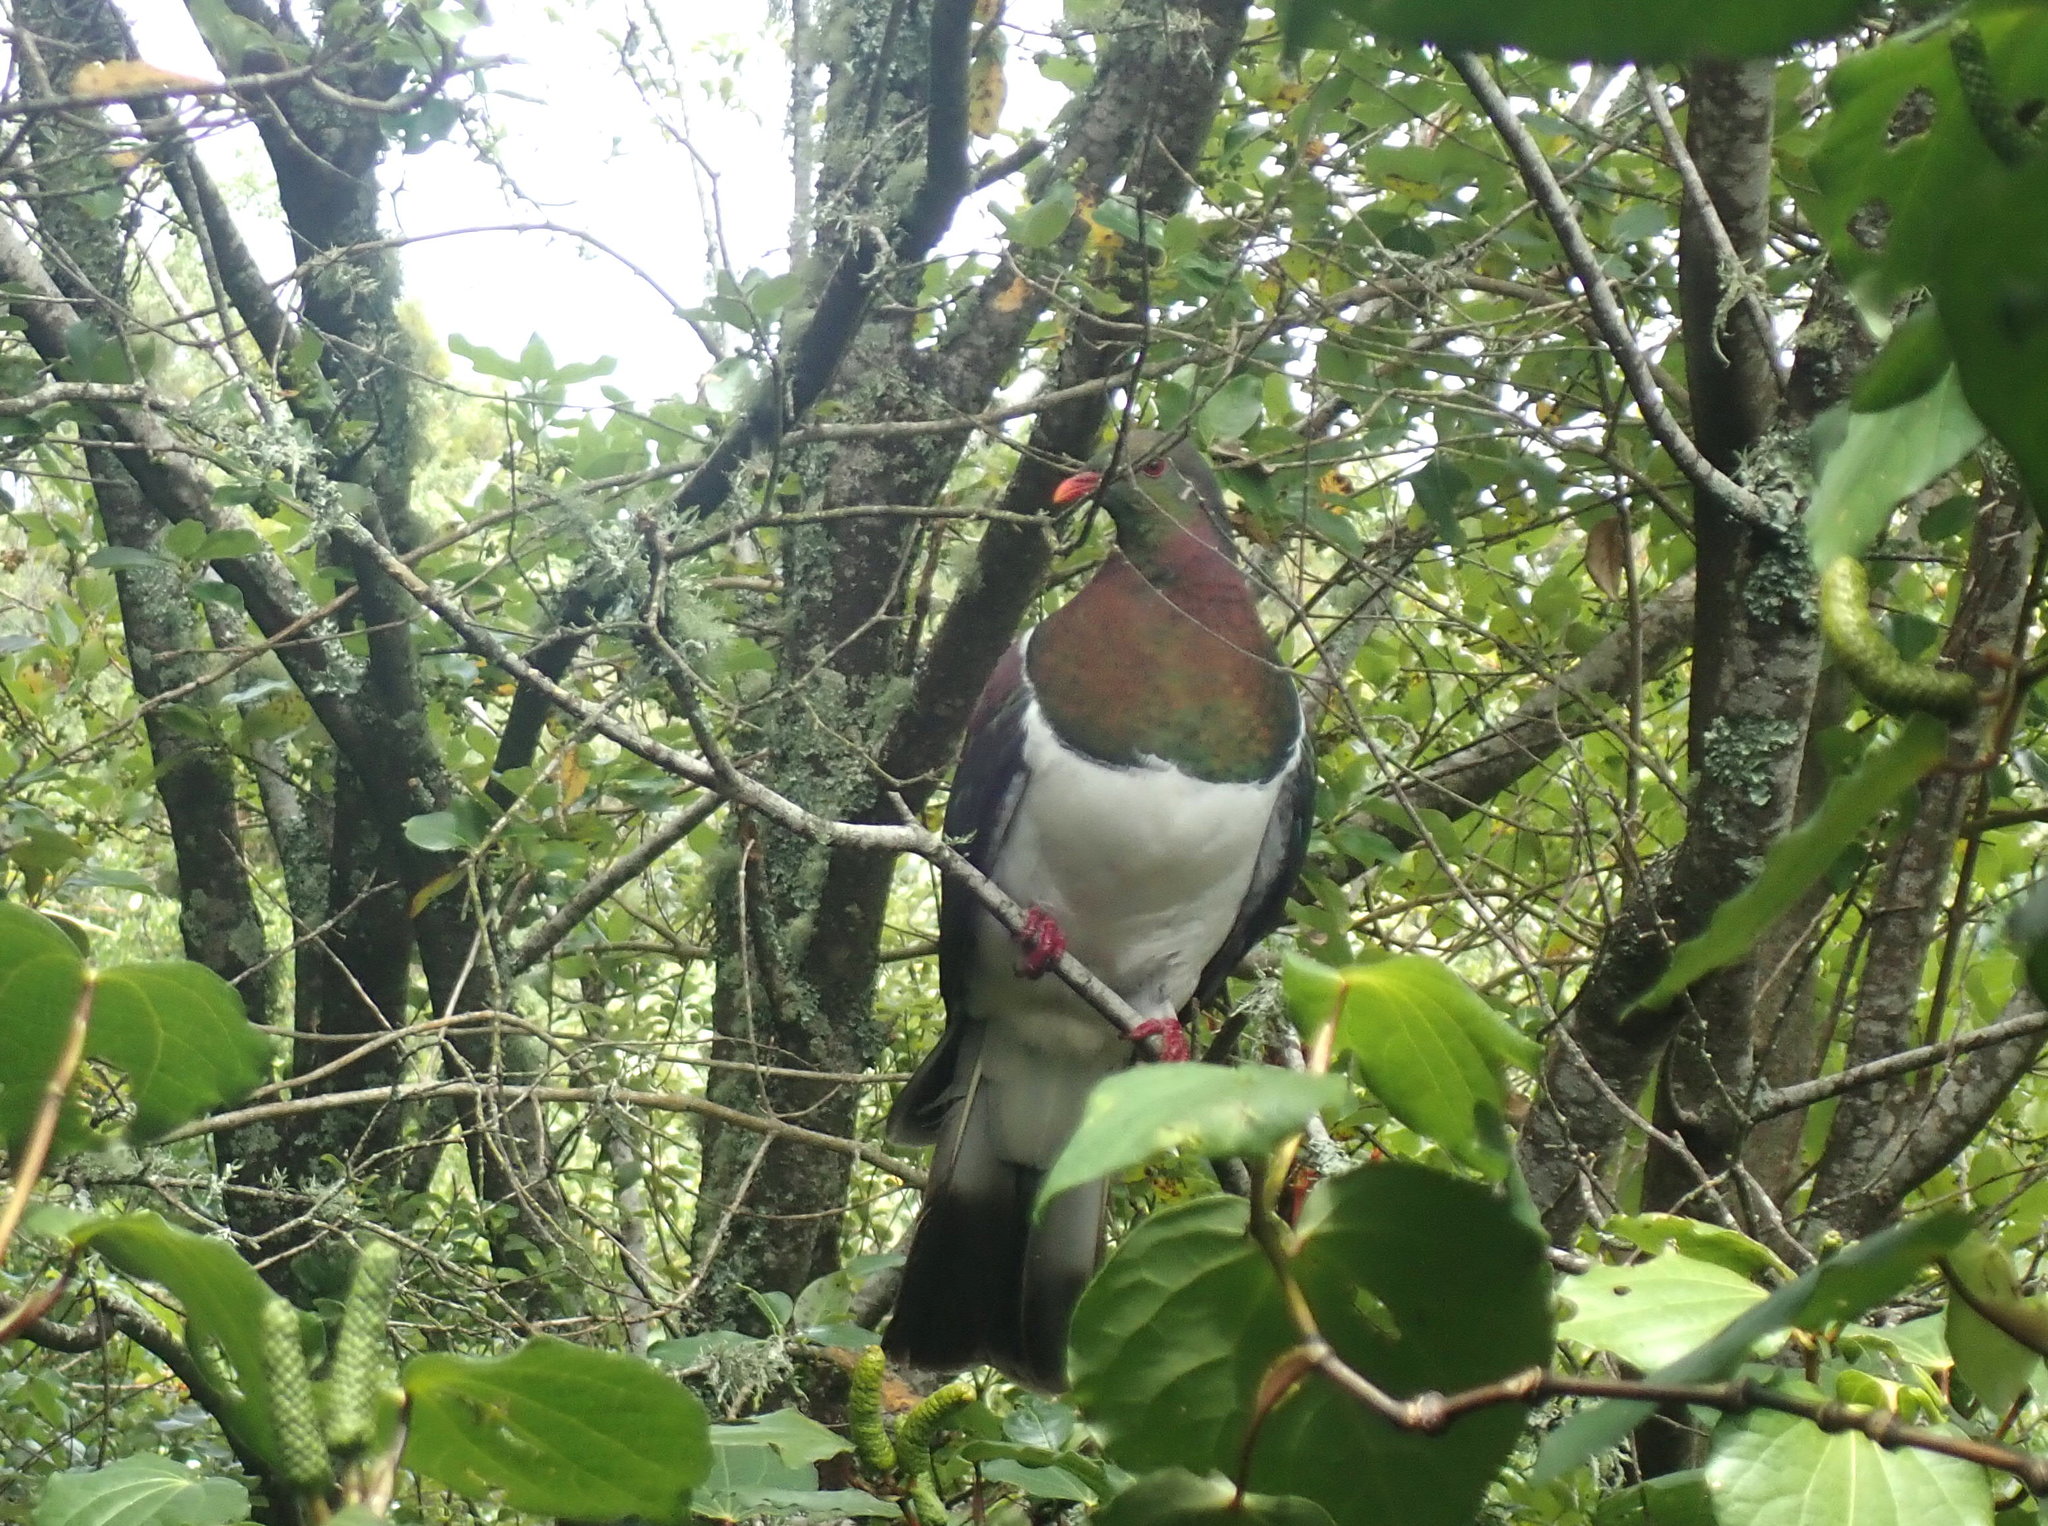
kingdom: Animalia
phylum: Chordata
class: Aves
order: Columbiformes
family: Columbidae
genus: Hemiphaga
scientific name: Hemiphaga novaeseelandiae
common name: New zealand pigeon
